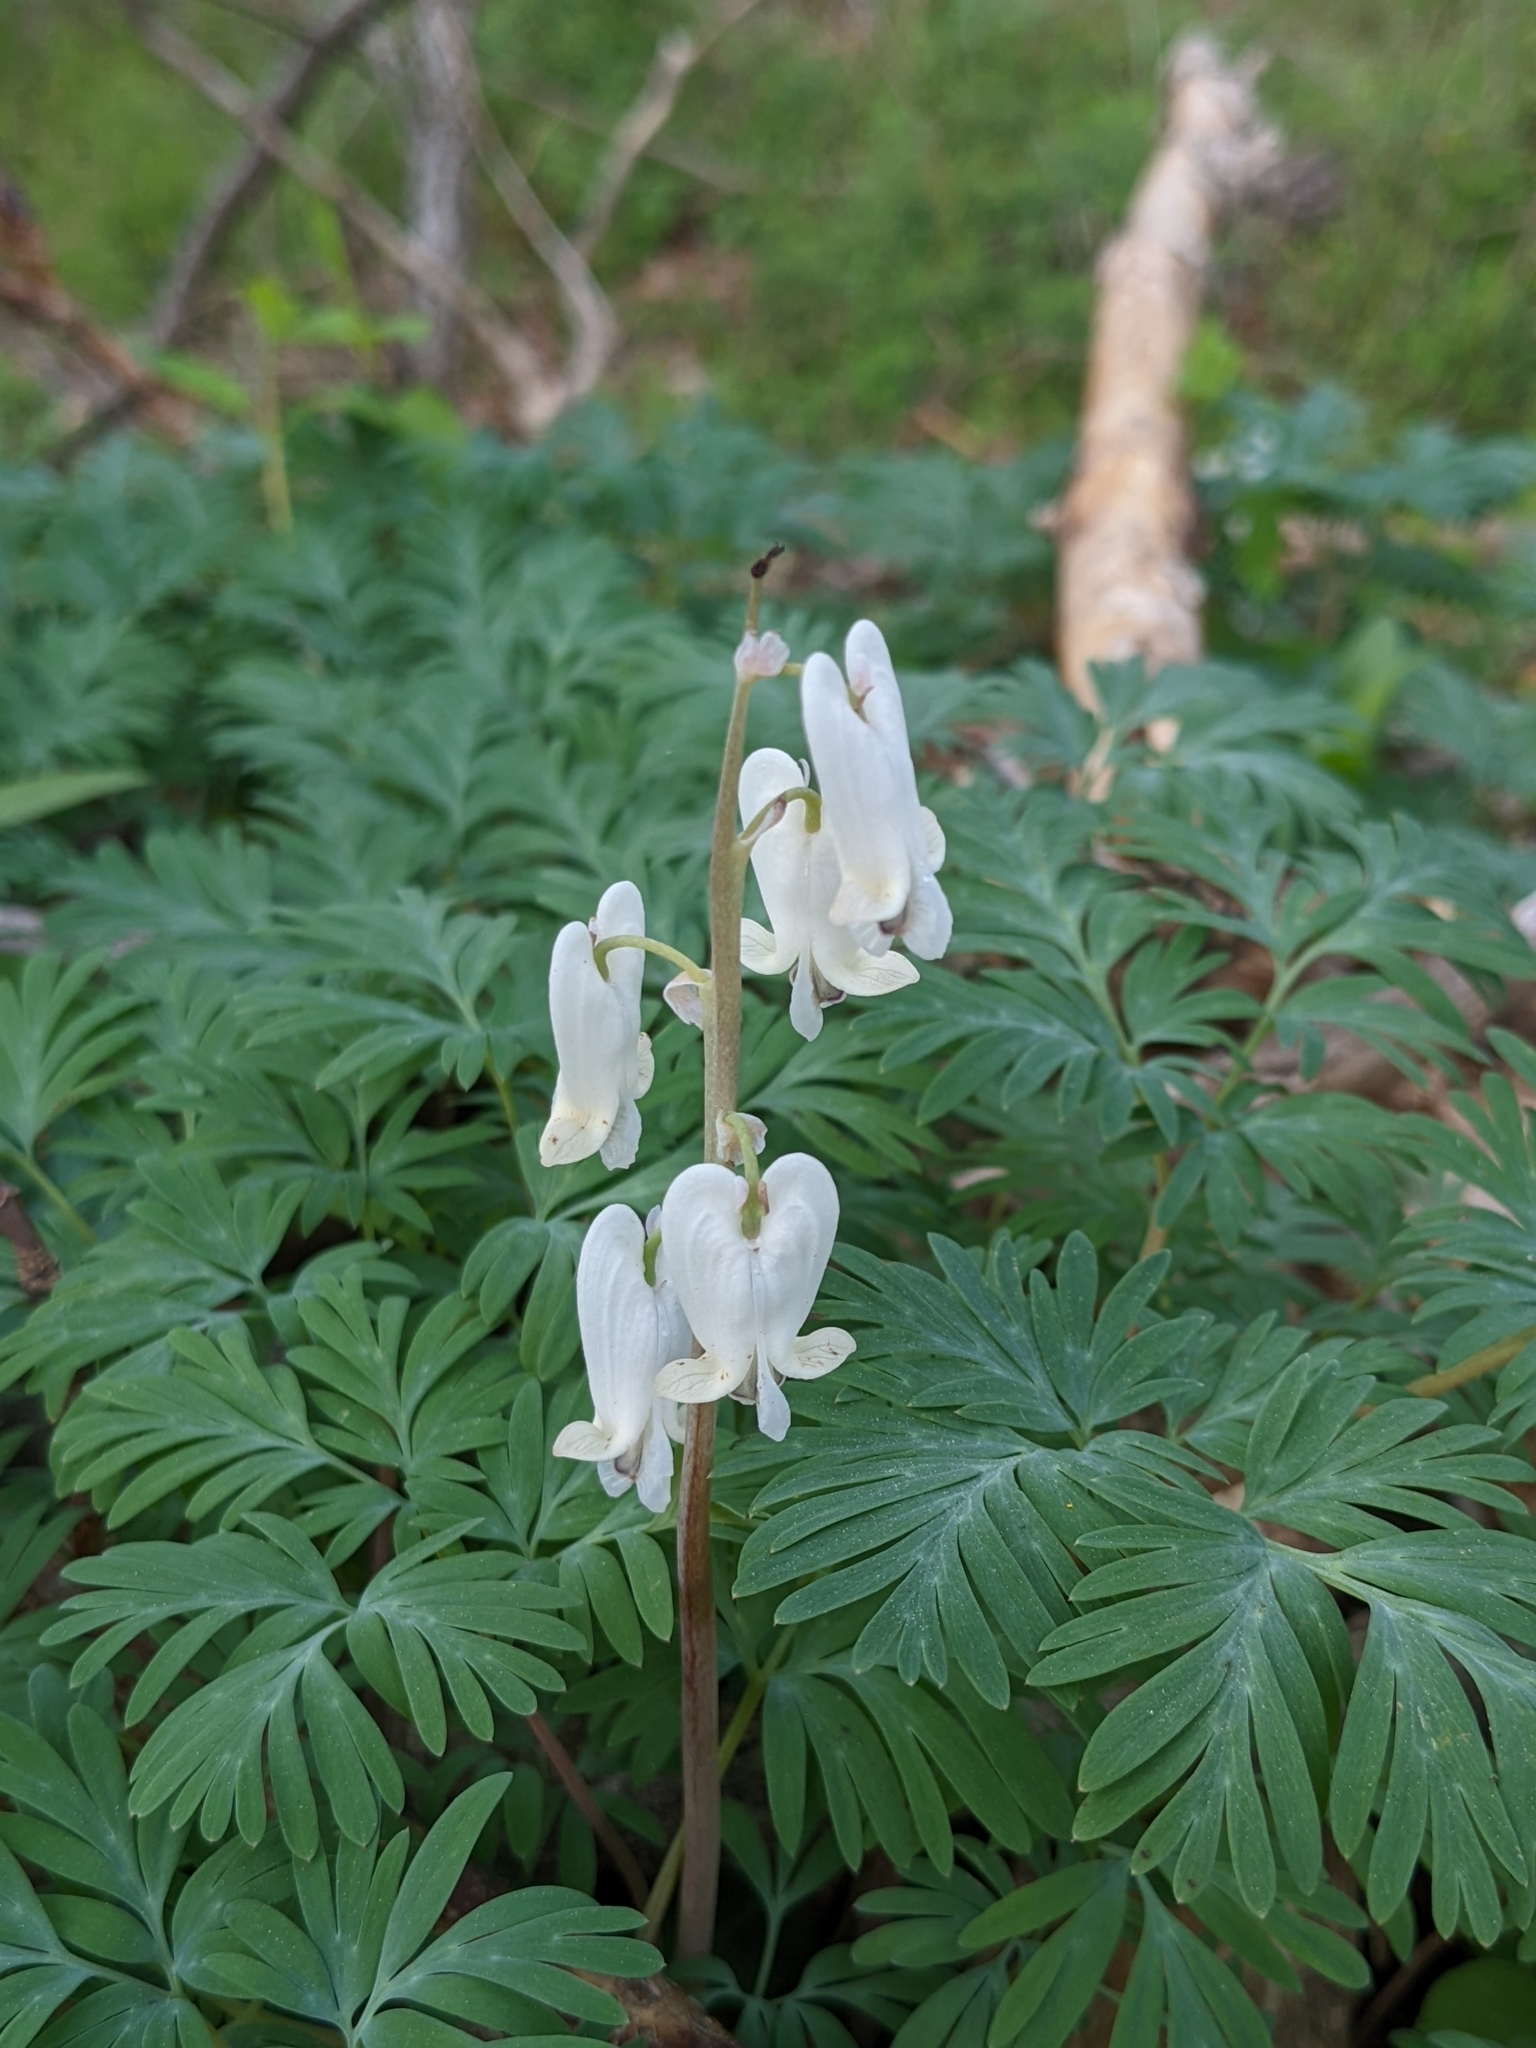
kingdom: Plantae
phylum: Tracheophyta
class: Magnoliopsida
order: Ranunculales
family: Papaveraceae
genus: Dicentra
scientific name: Dicentra canadensis
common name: Squirrel-corn
